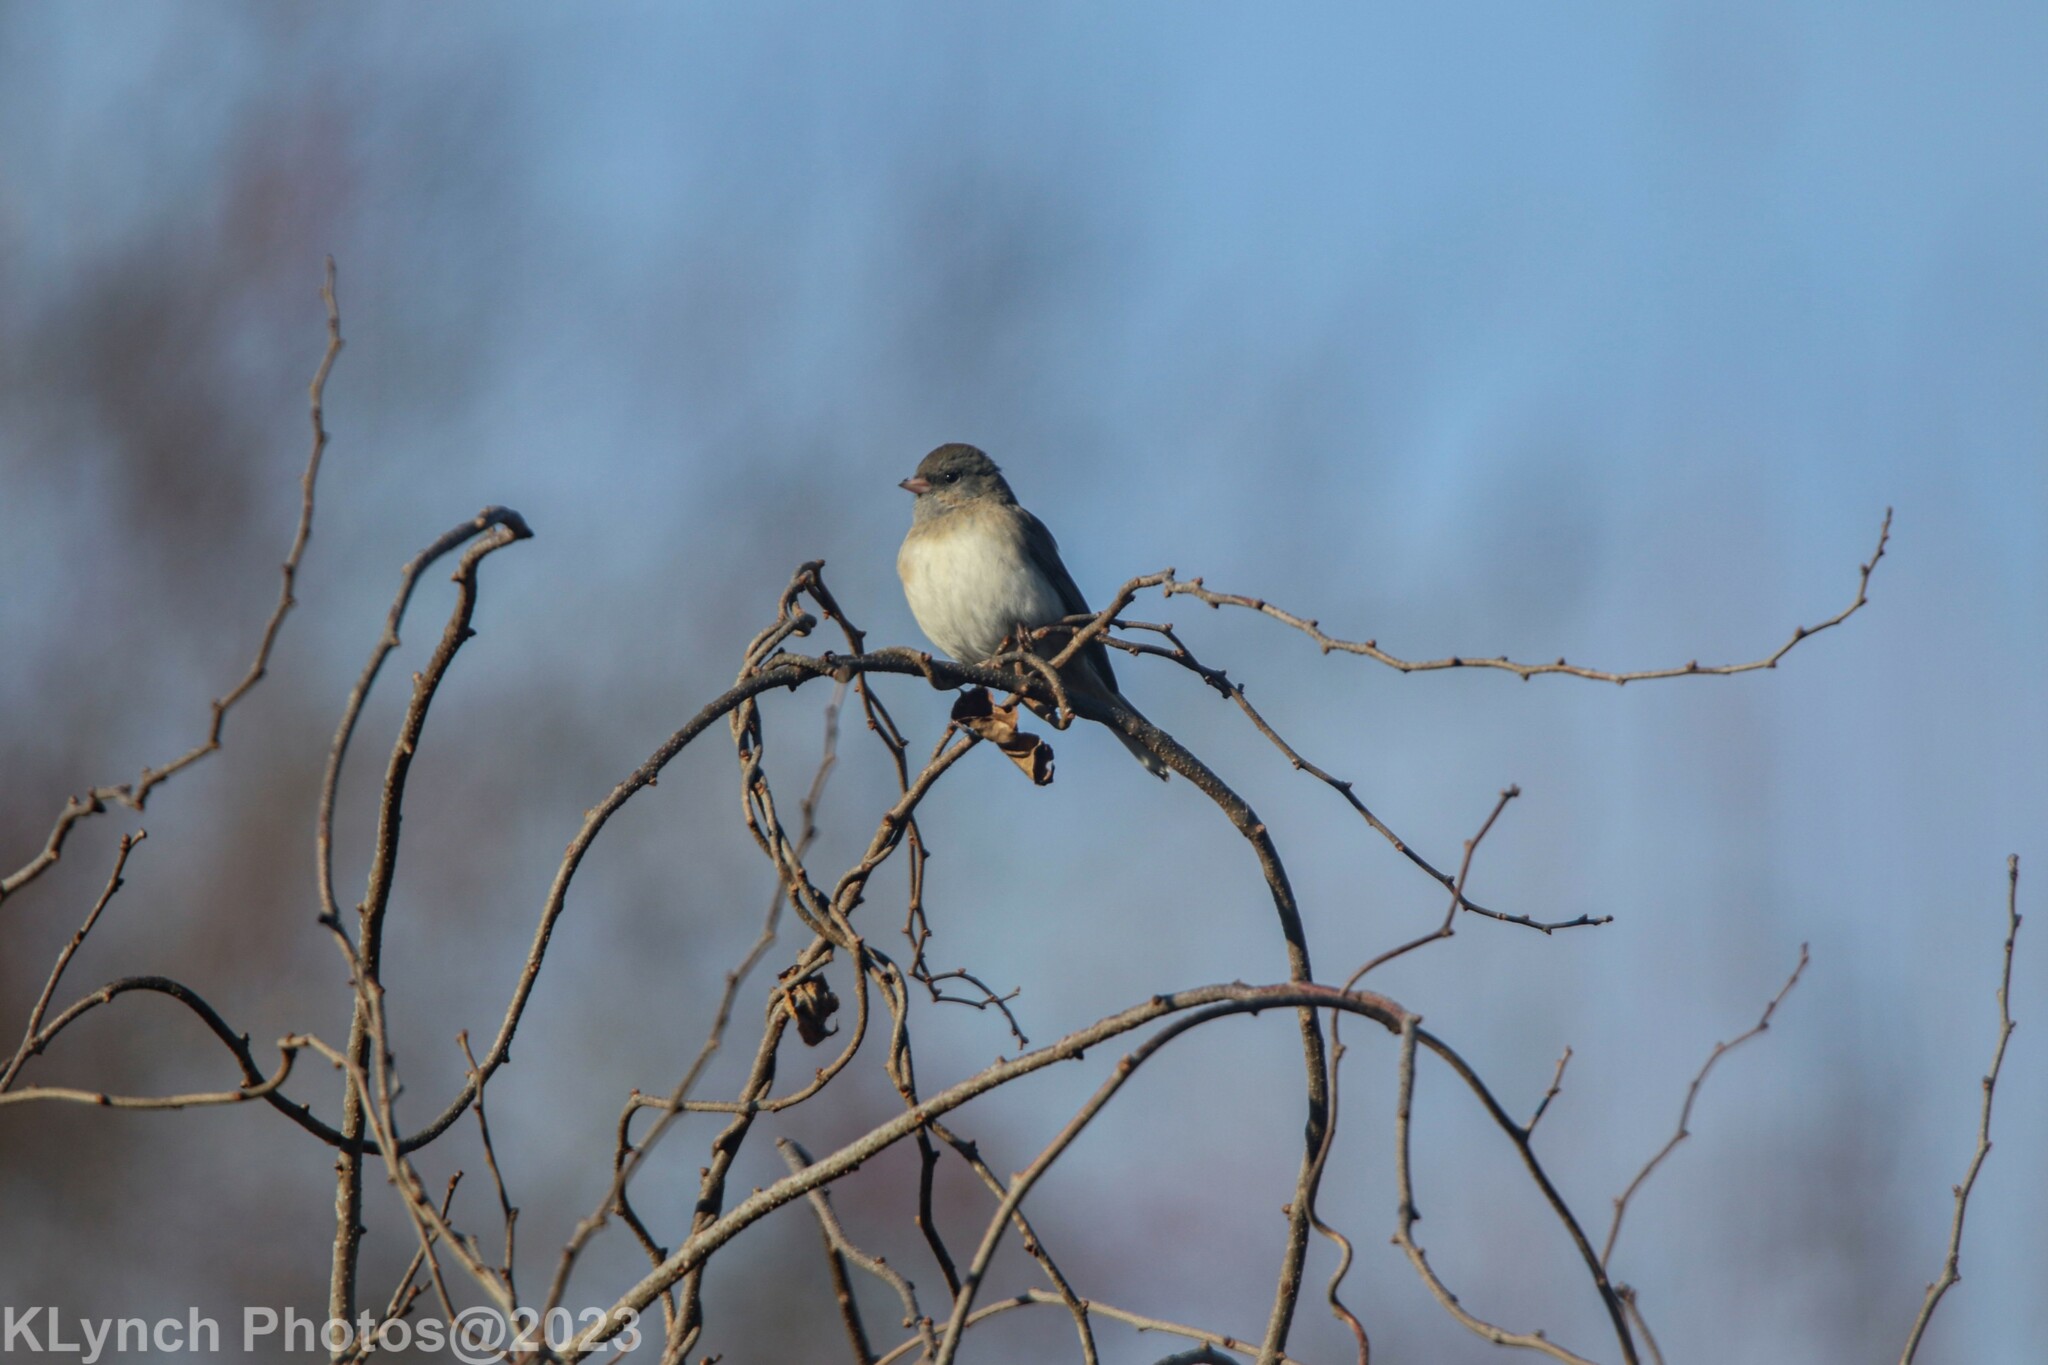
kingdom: Animalia
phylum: Chordata
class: Aves
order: Passeriformes
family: Passerellidae
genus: Junco
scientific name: Junco hyemalis
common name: Dark-eyed junco
